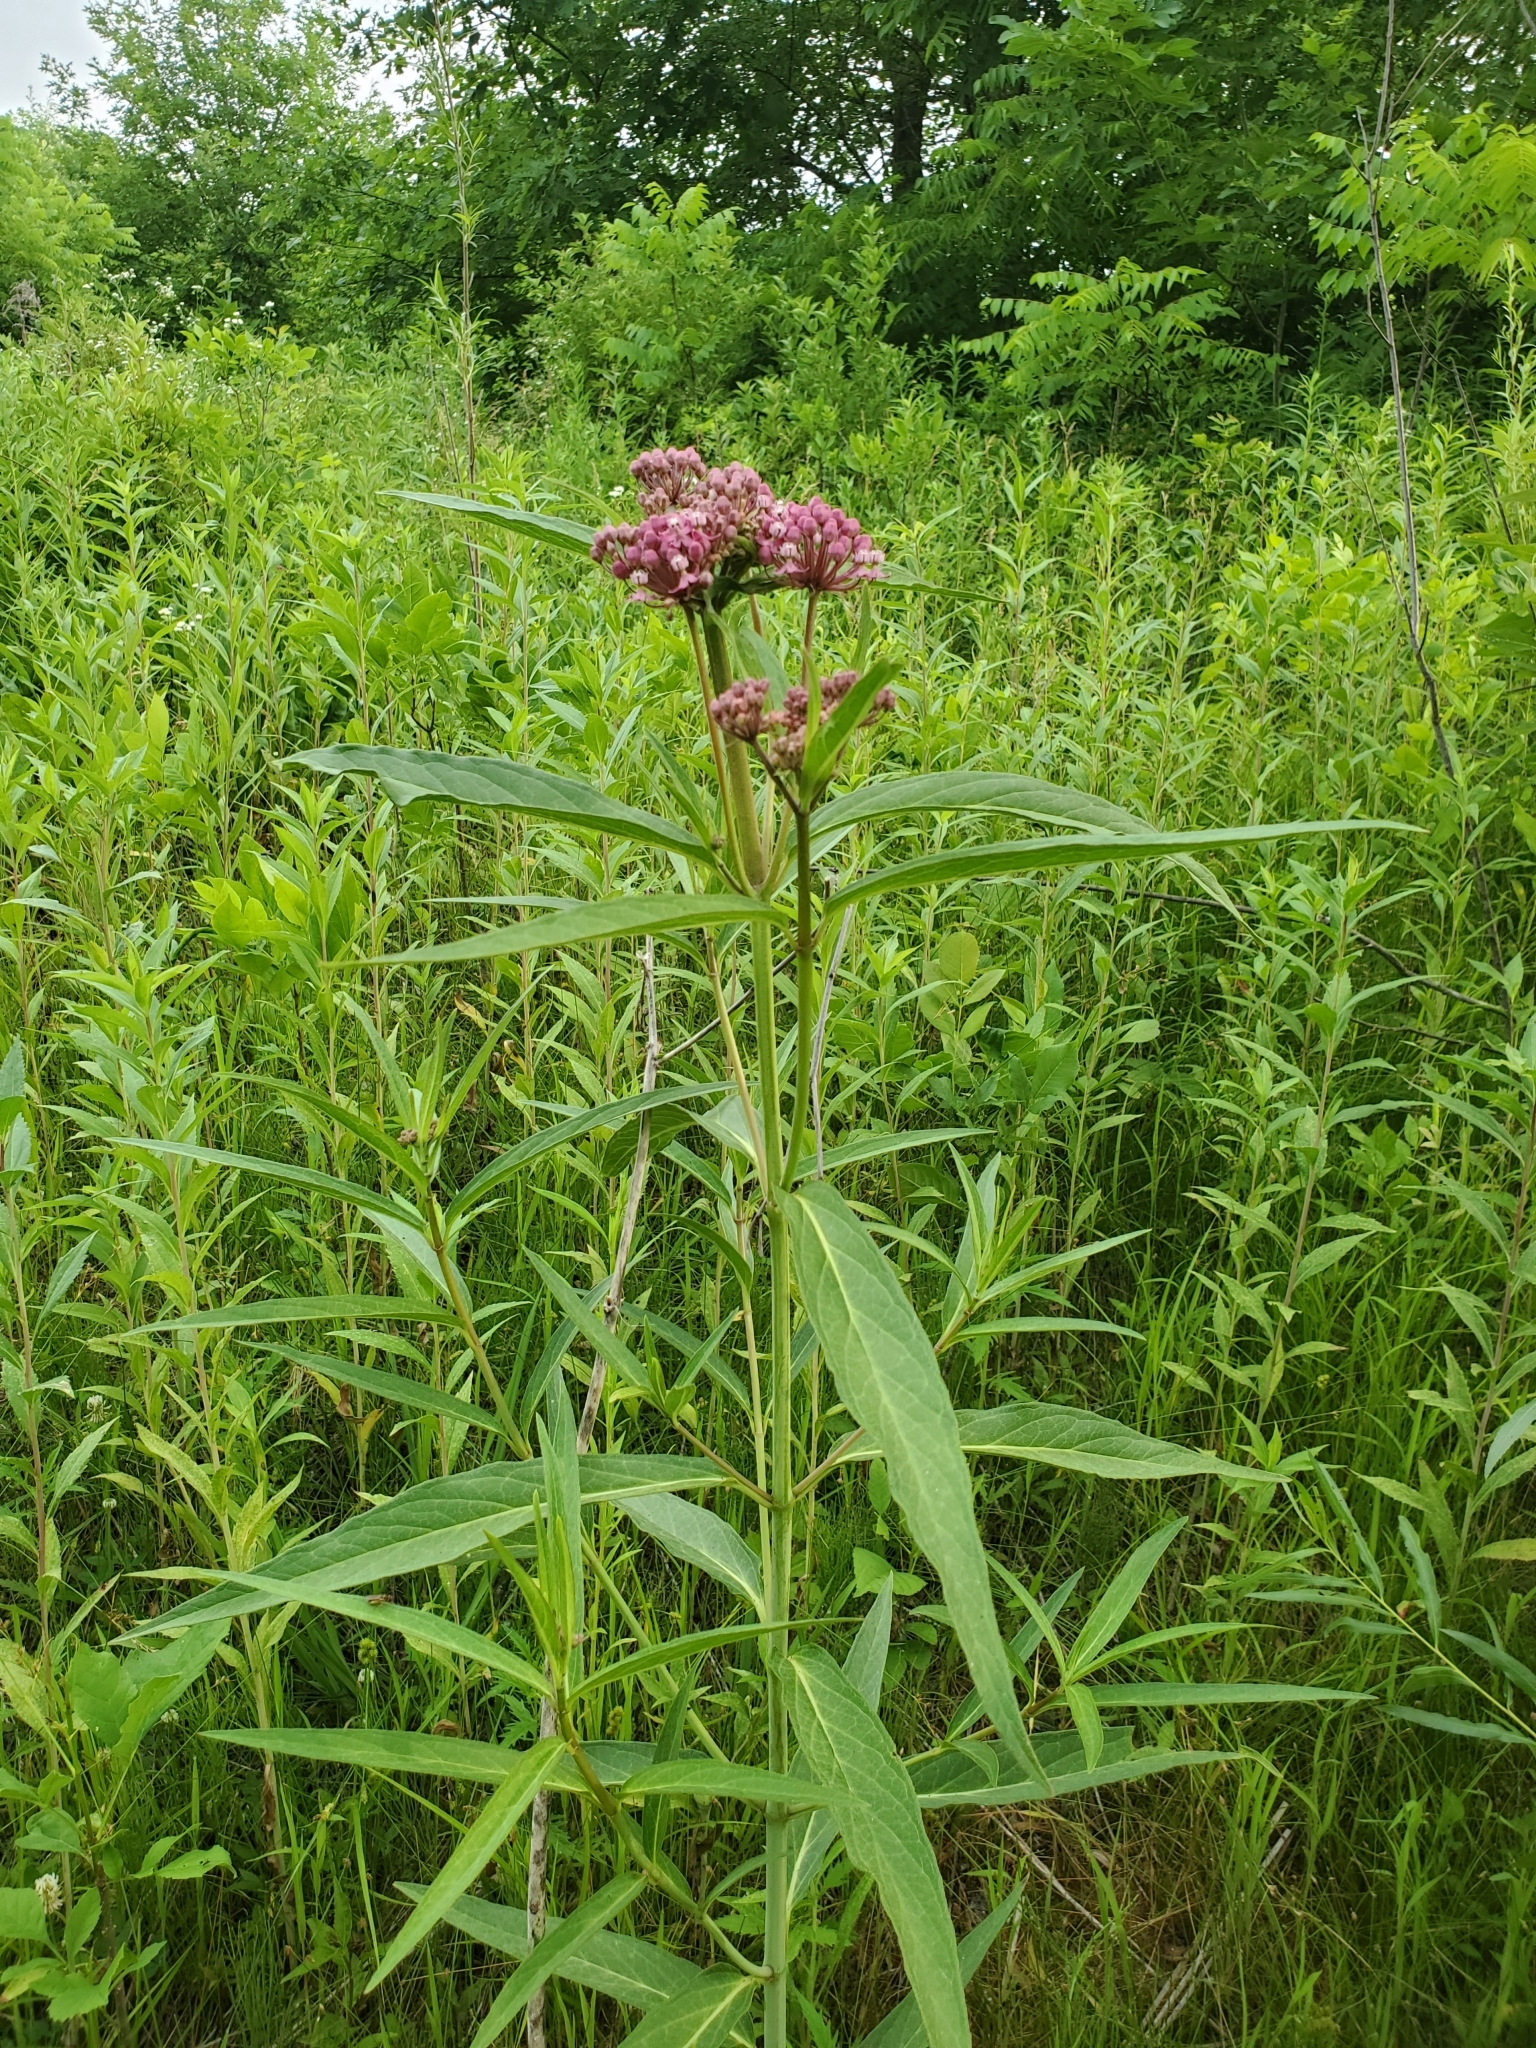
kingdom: Plantae
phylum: Tracheophyta
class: Magnoliopsida
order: Gentianales
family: Apocynaceae
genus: Asclepias
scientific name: Asclepias incarnata
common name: Swamp milkweed
